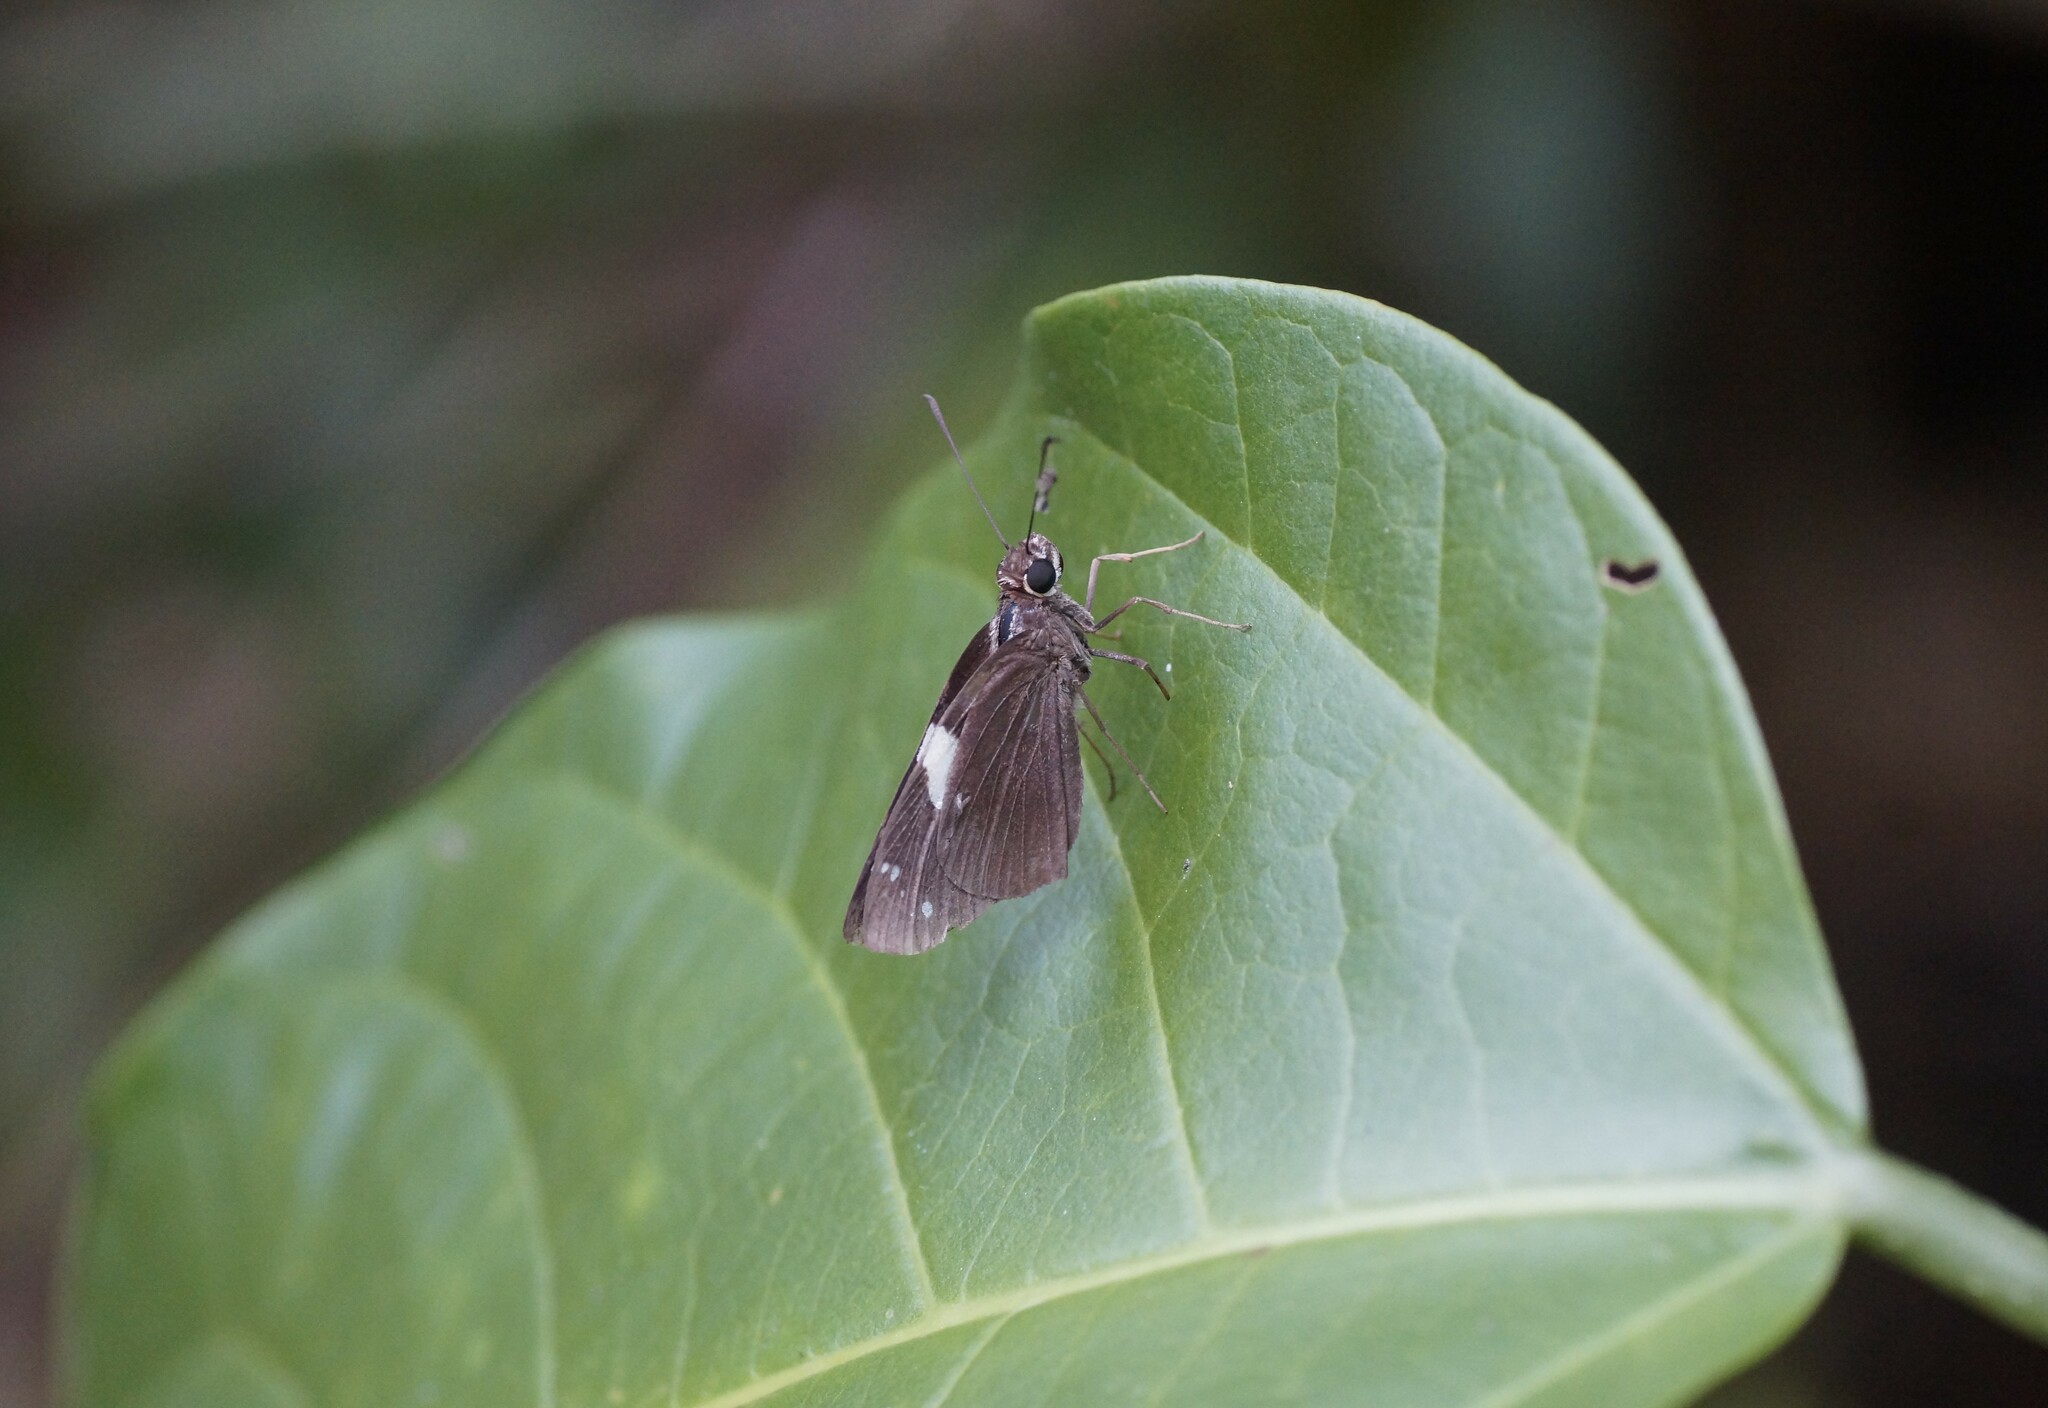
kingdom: Animalia
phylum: Arthropoda
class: Insecta
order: Lepidoptera
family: Hesperiidae
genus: Notocrypta
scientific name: Notocrypta waigensis
